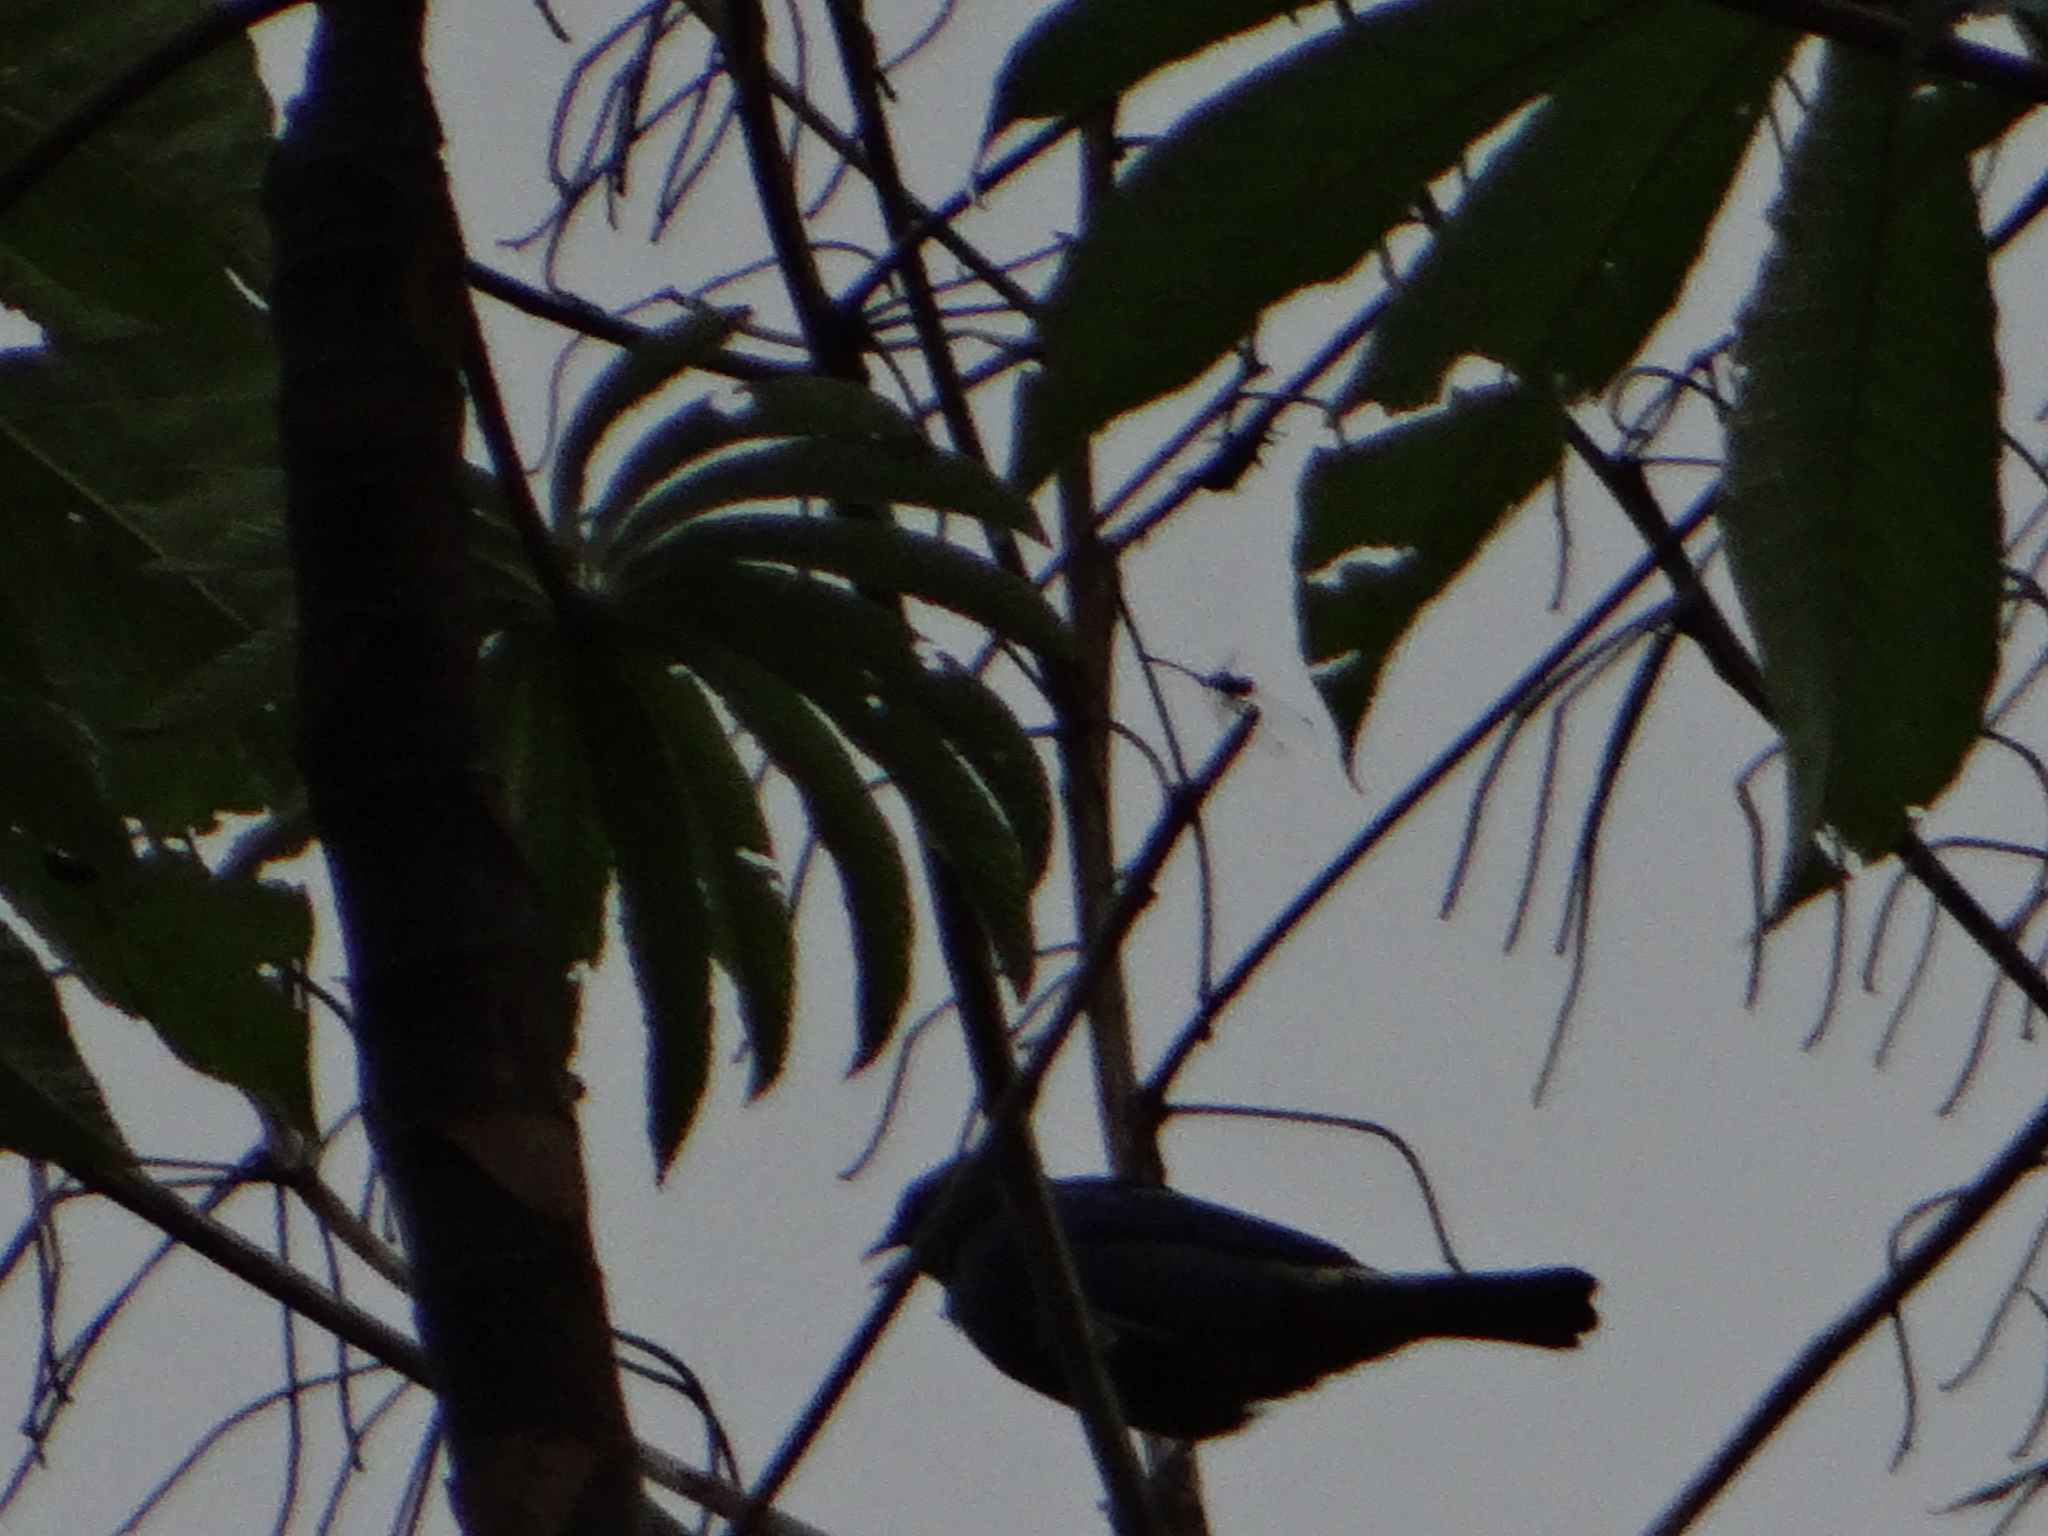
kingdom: Animalia
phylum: Chordata
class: Aves
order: Passeriformes
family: Thraupidae
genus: Tangara
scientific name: Tangara velia
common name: Opal-rumped tanager
